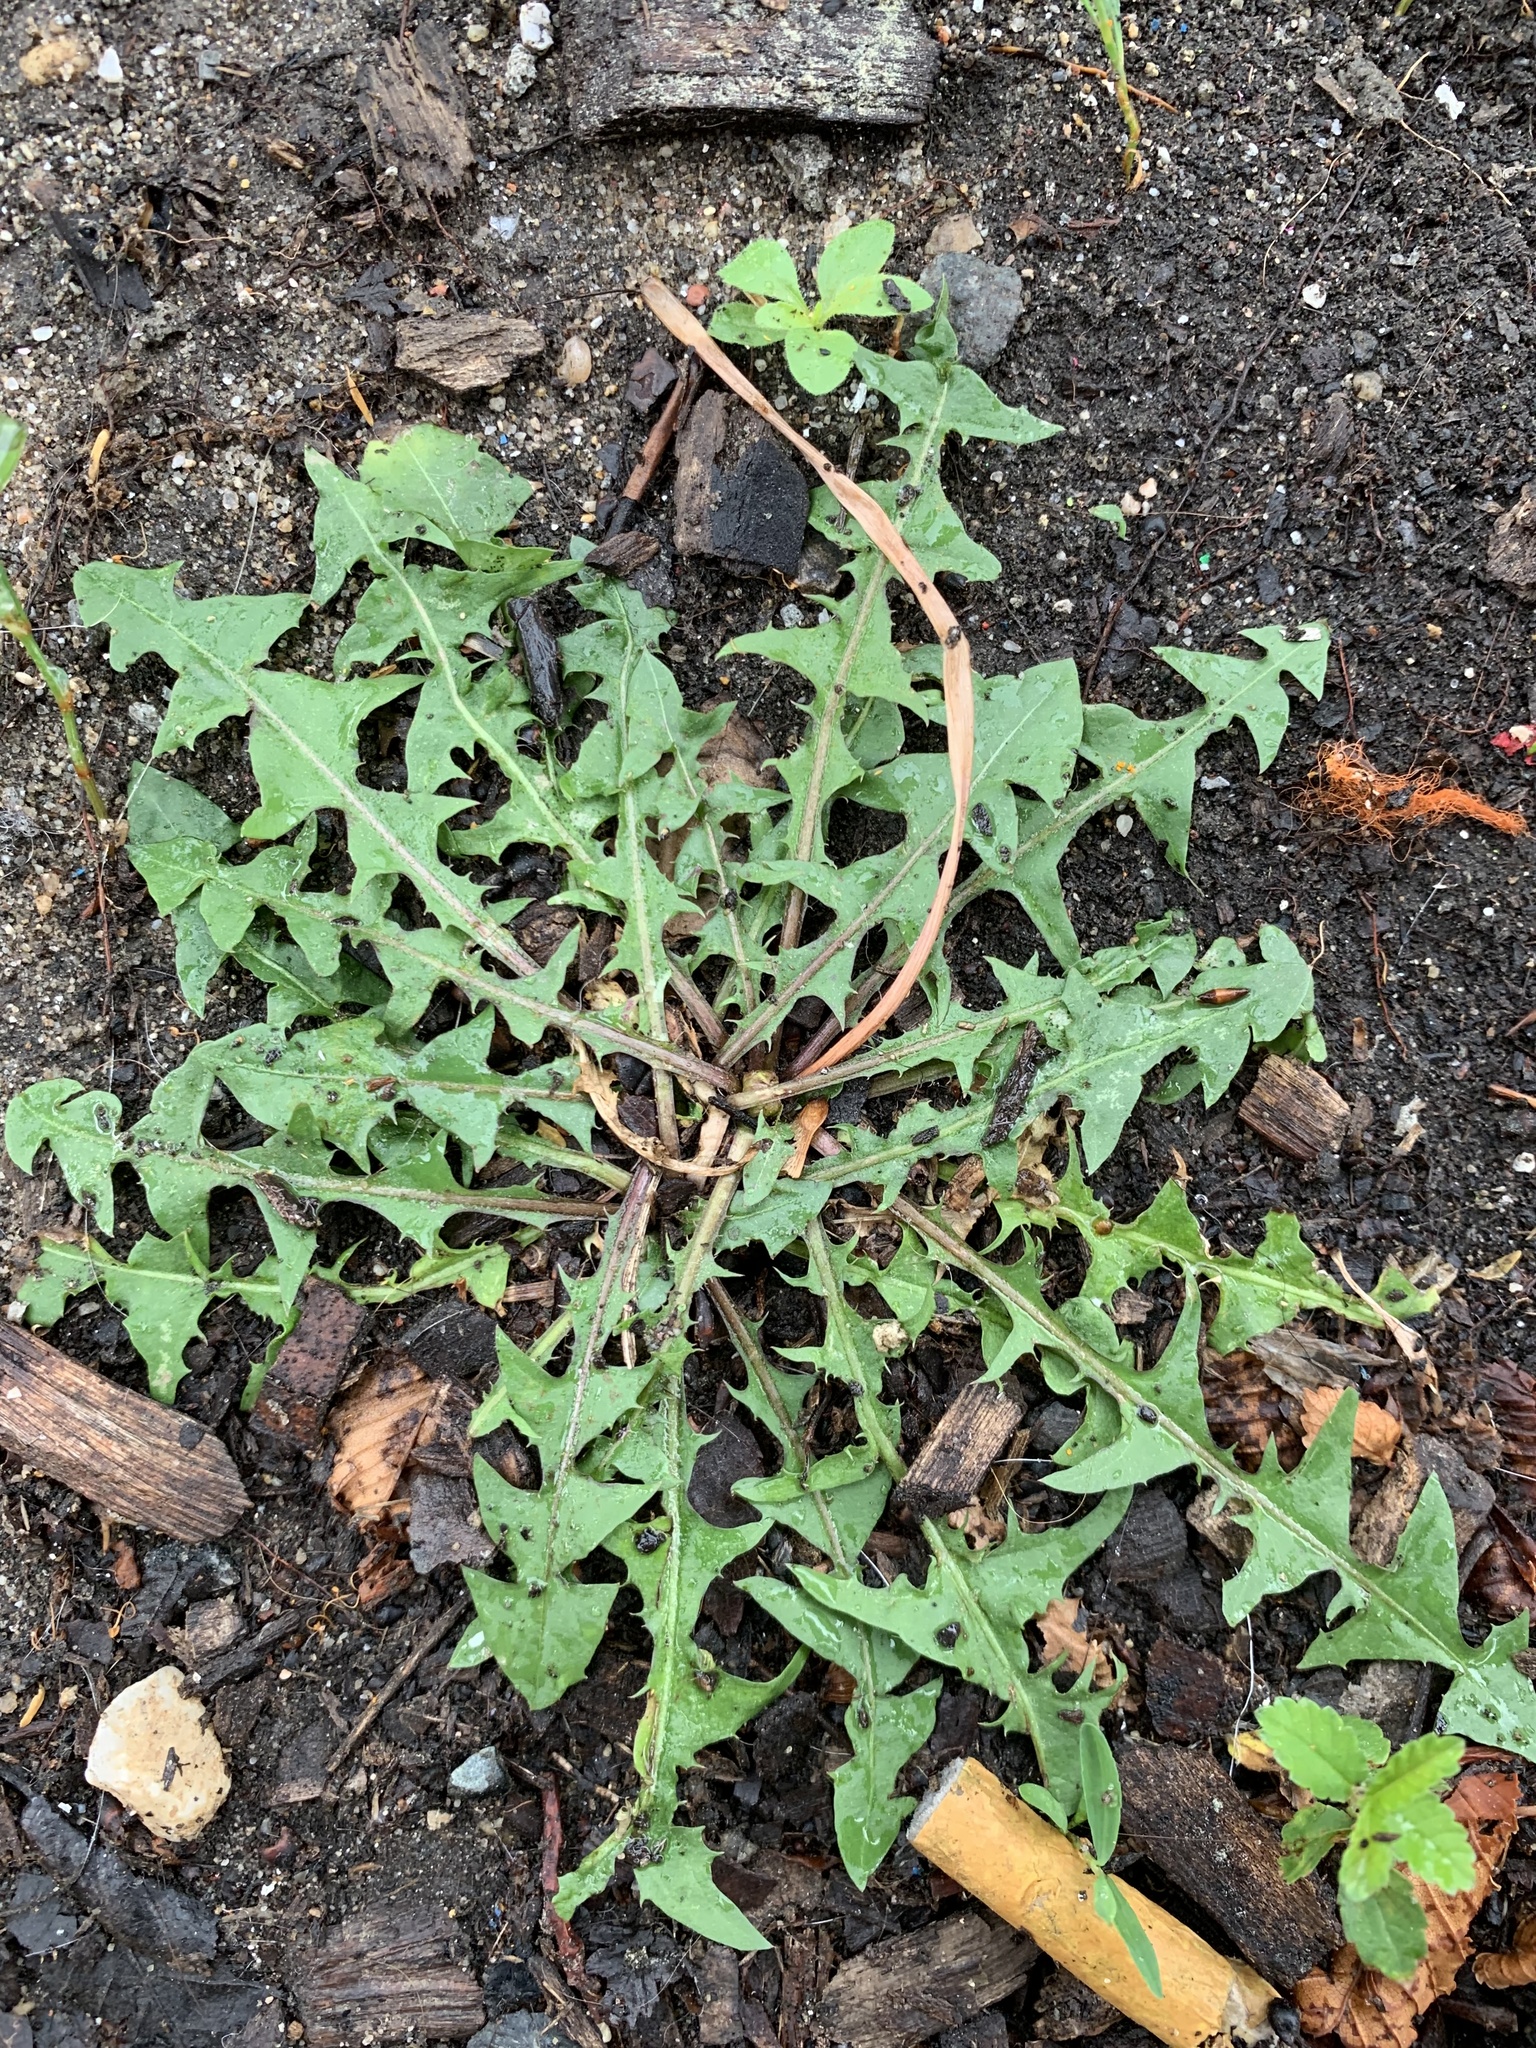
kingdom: Plantae
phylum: Tracheophyta
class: Magnoliopsida
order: Asterales
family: Asteraceae
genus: Taraxacum
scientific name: Taraxacum officinale
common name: Common dandelion
